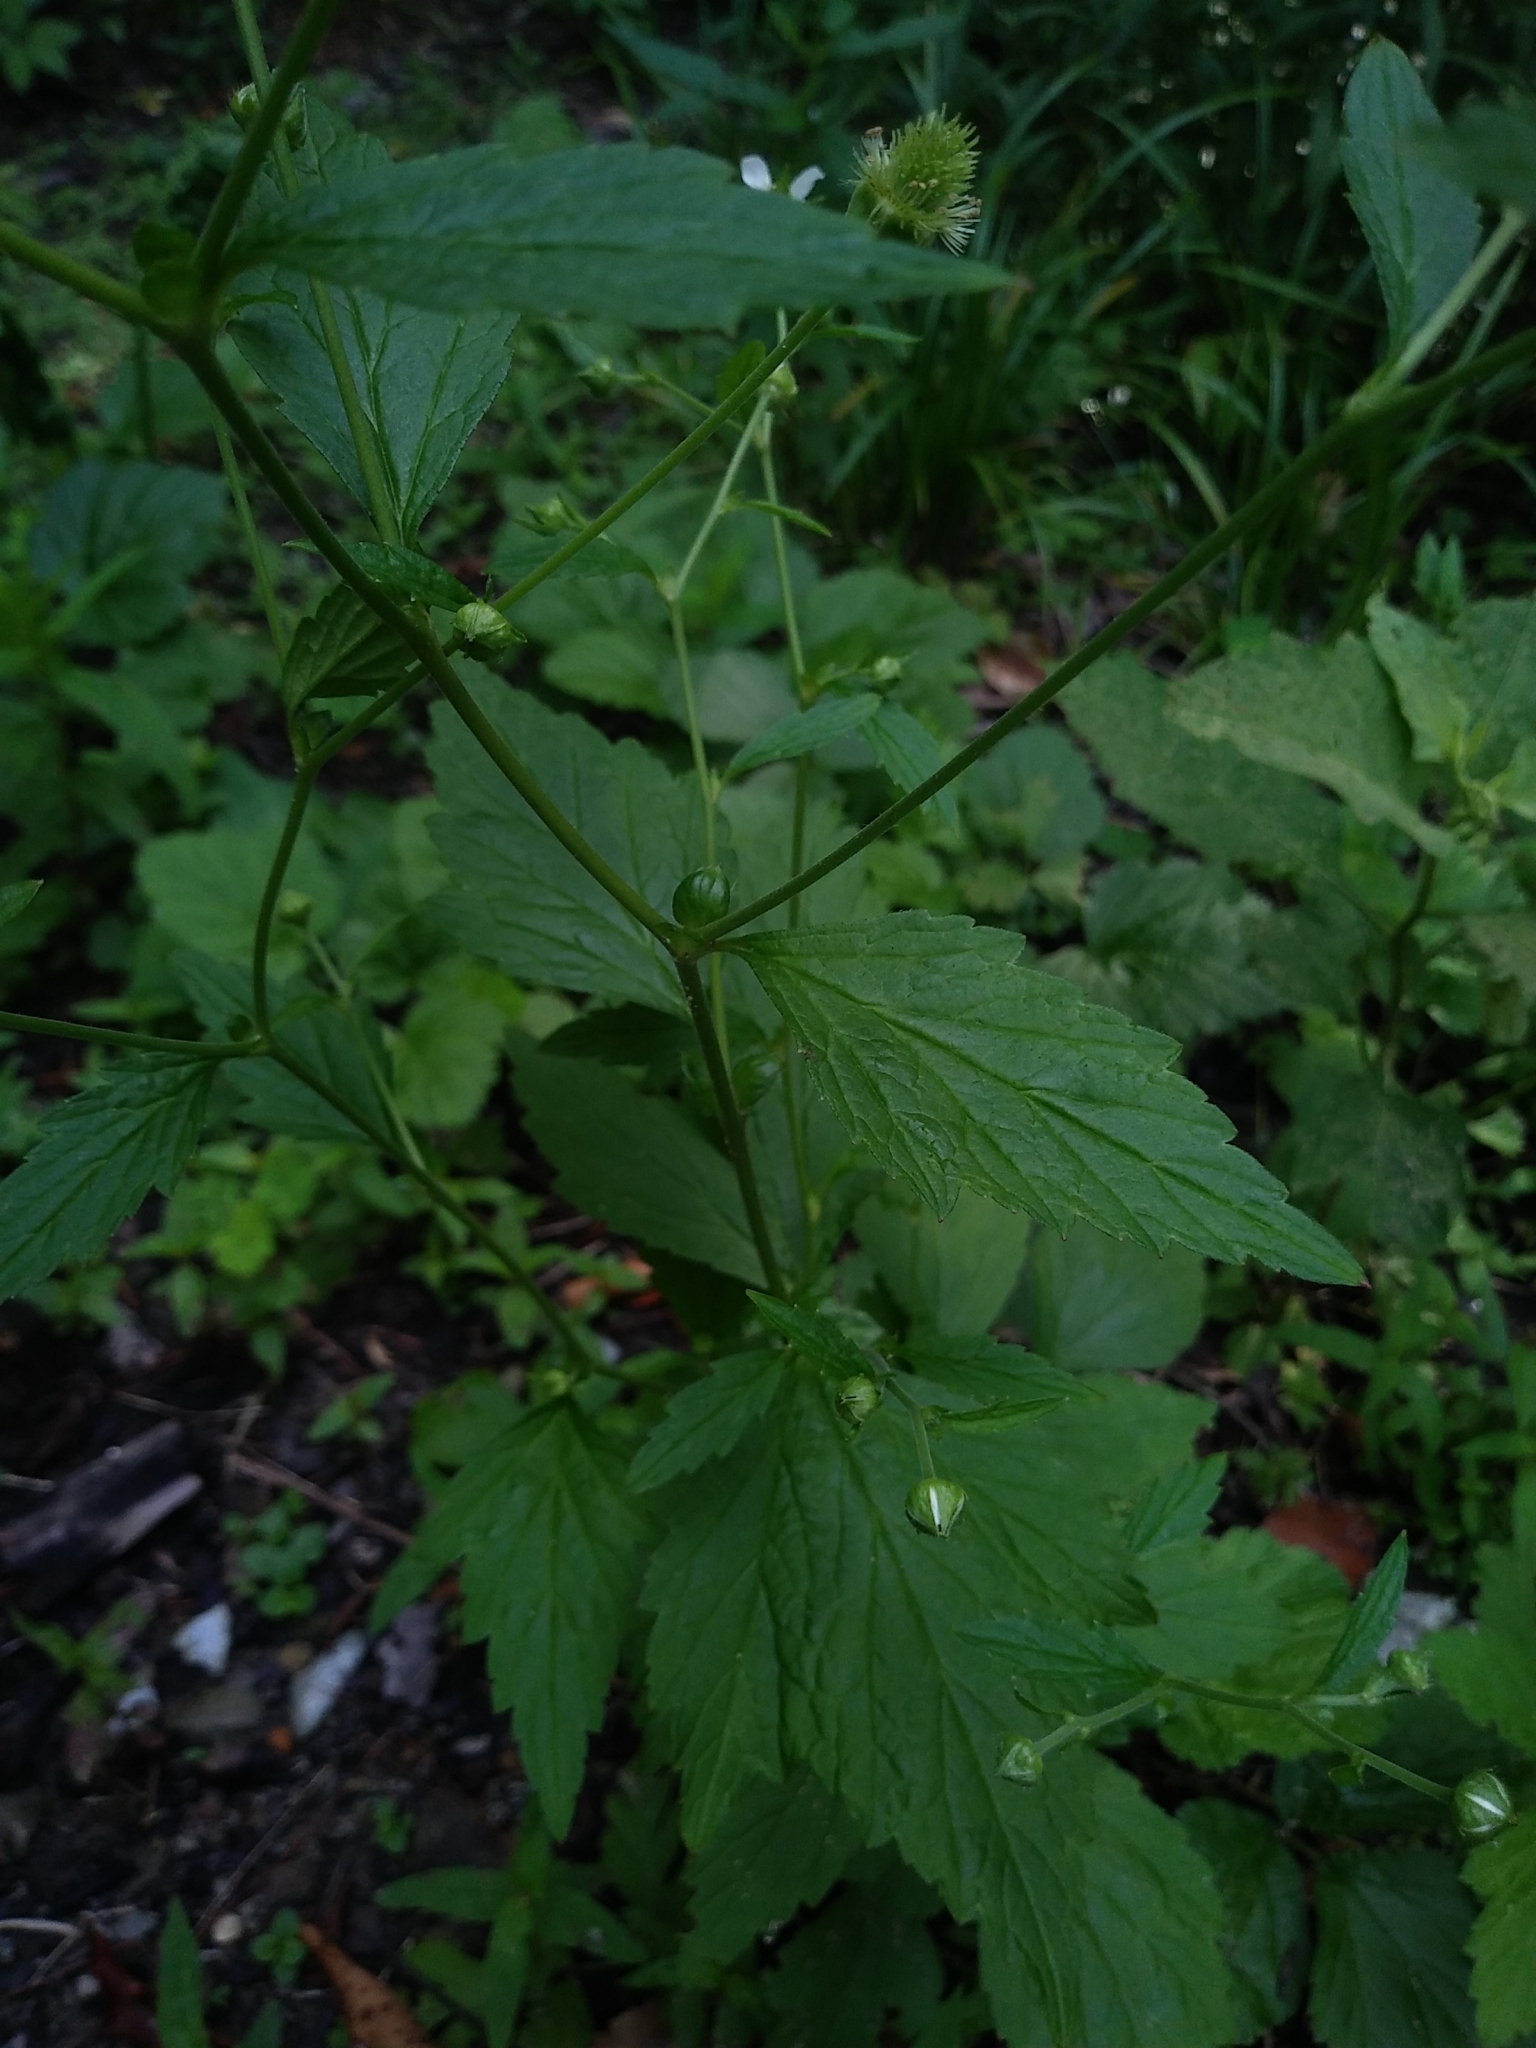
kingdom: Plantae
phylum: Tracheophyta
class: Magnoliopsida
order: Rosales
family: Rosaceae
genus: Geum
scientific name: Geum canadense
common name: White avens
